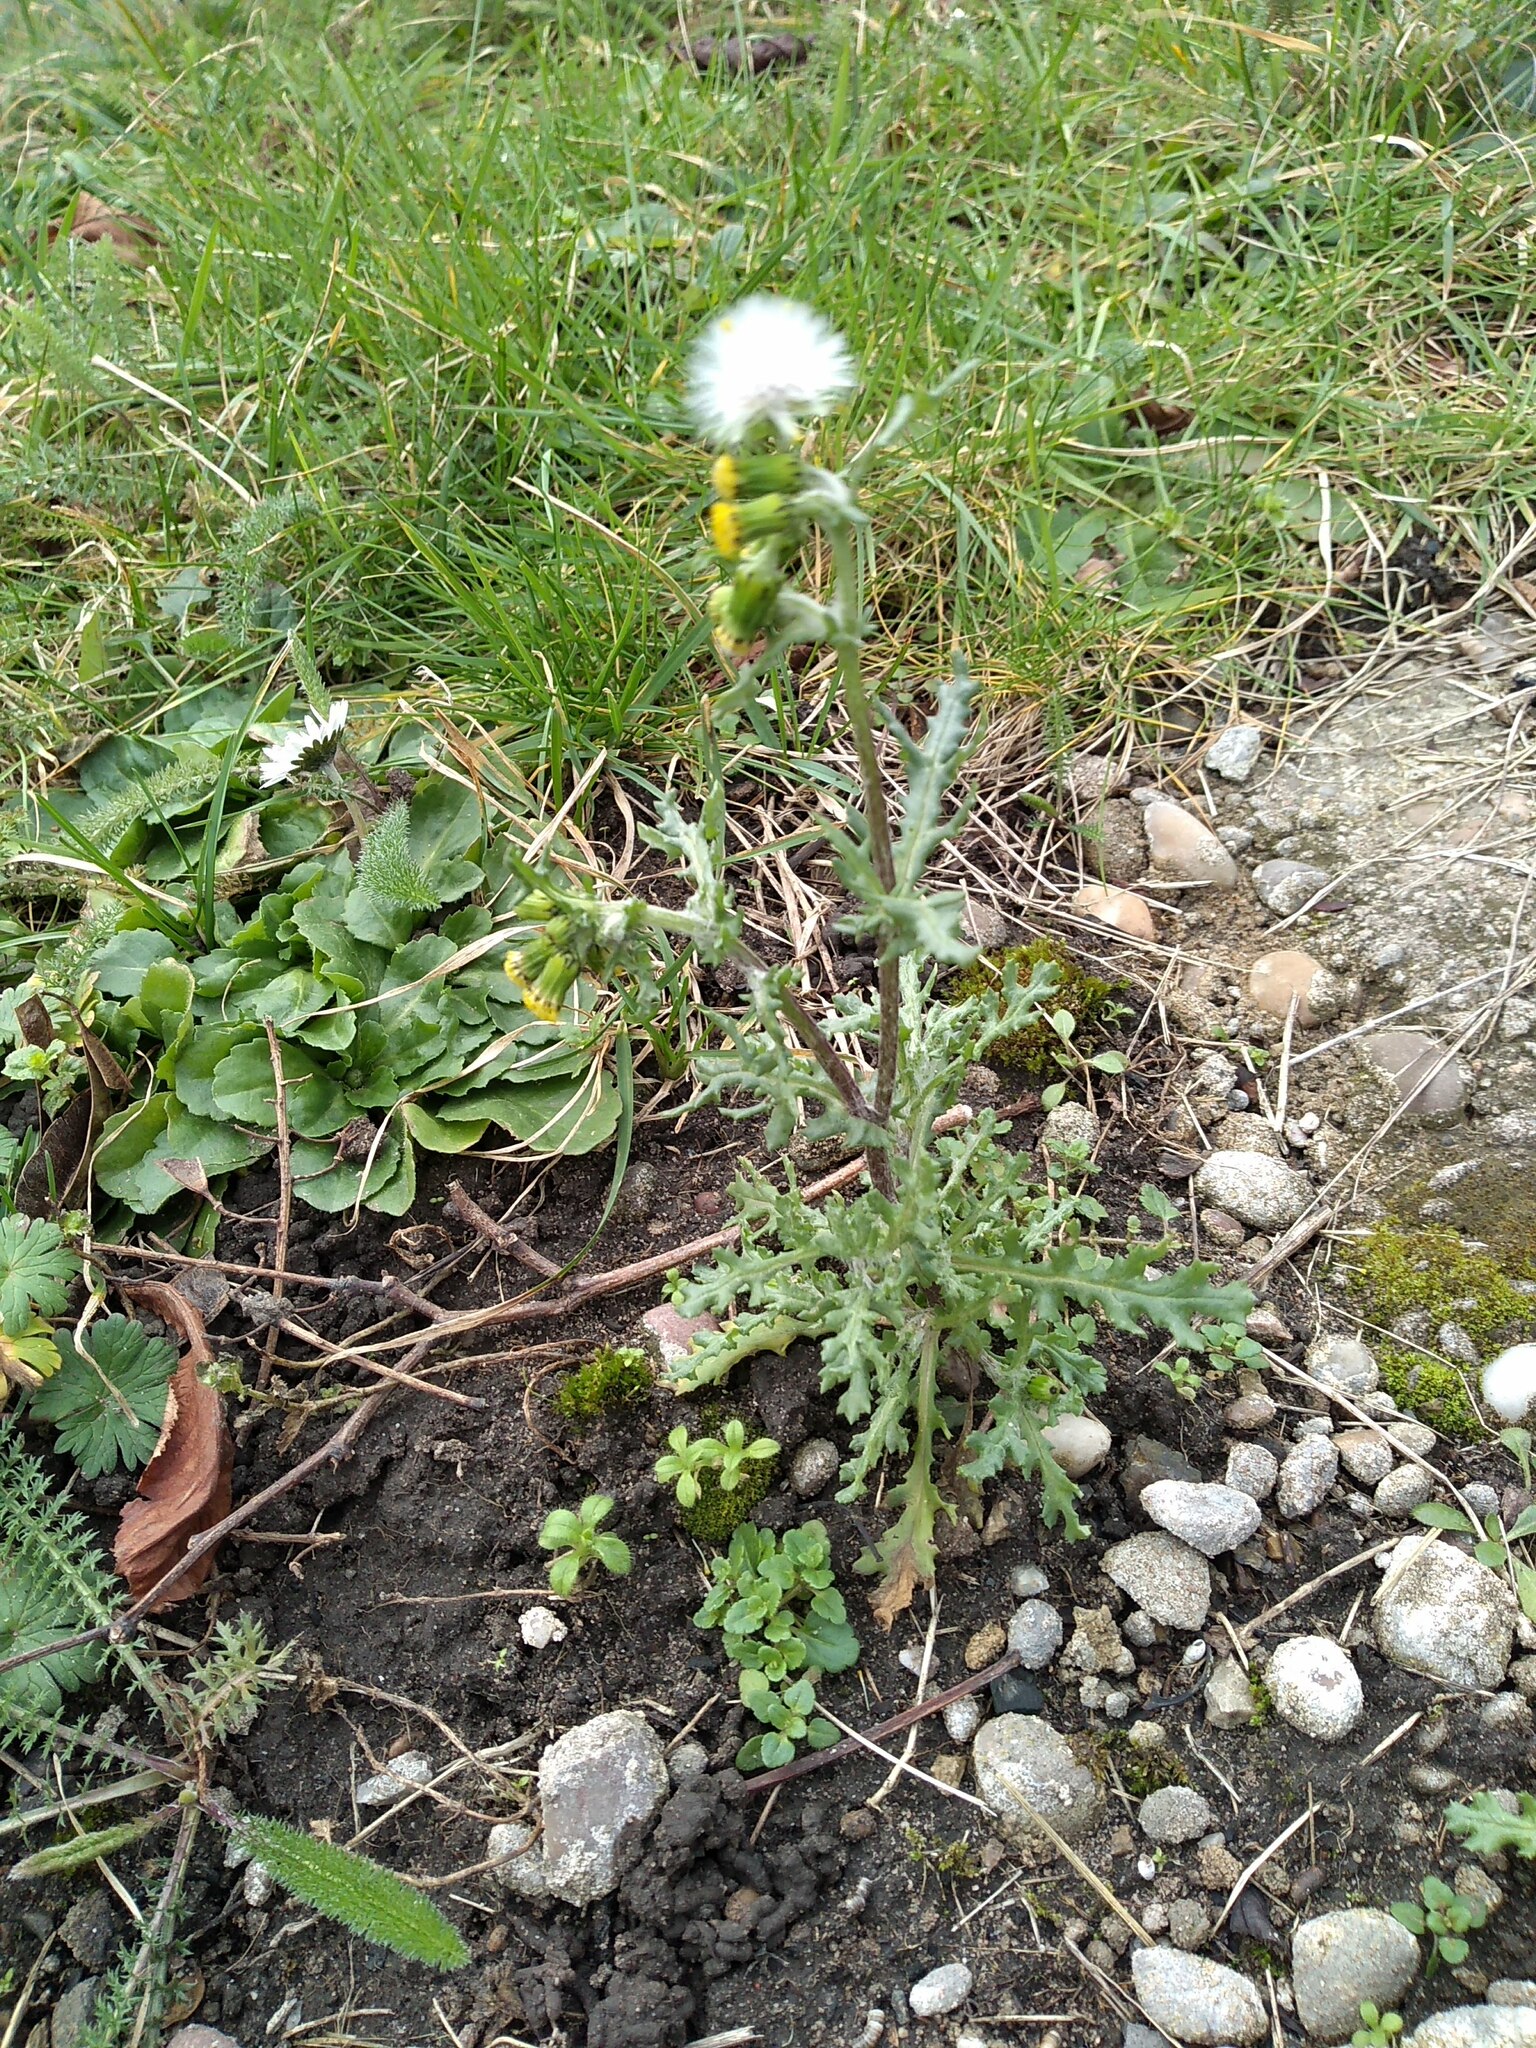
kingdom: Plantae
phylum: Tracheophyta
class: Magnoliopsida
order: Asterales
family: Asteraceae
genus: Senecio
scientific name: Senecio vulgaris
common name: Old-man-in-the-spring
